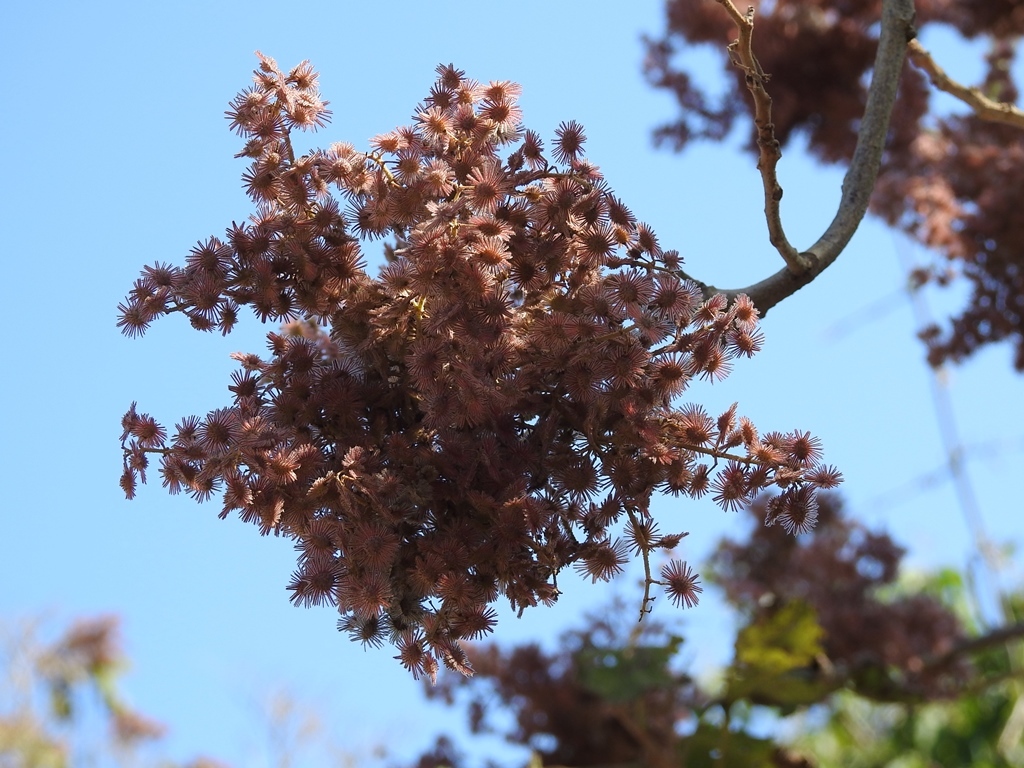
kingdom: Plantae
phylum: Tracheophyta
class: Magnoliopsida
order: Malvales
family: Malvaceae
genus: Heliocarpus
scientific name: Heliocarpus americanus
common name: White moho
